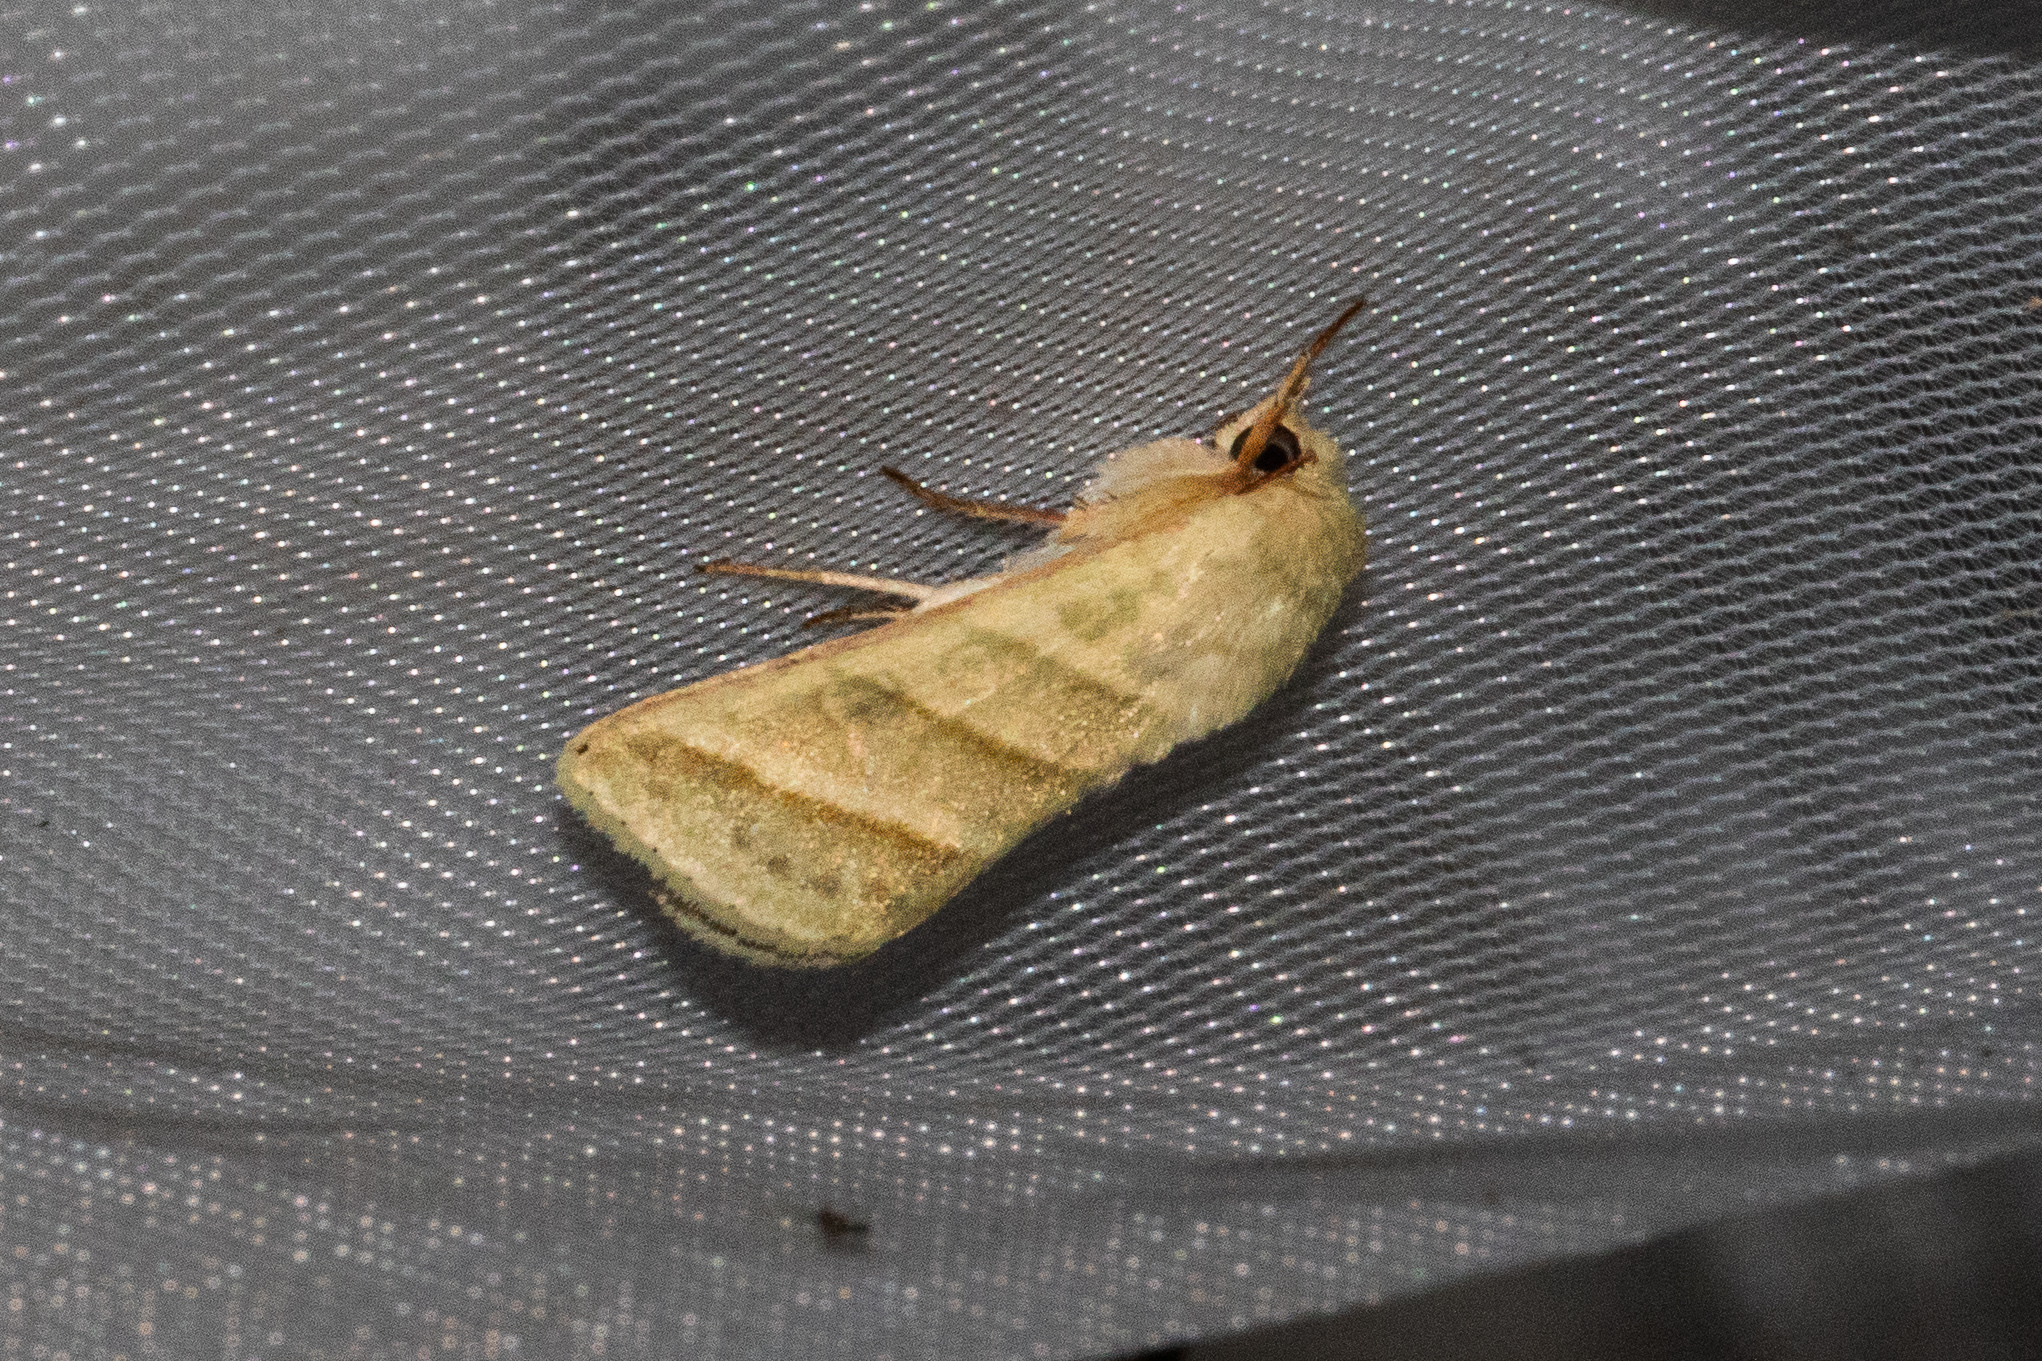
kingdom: Animalia
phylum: Arthropoda
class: Insecta
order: Lepidoptera
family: Noctuidae
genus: Chloridea
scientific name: Chloridea virescens
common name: Tobacco budworm
